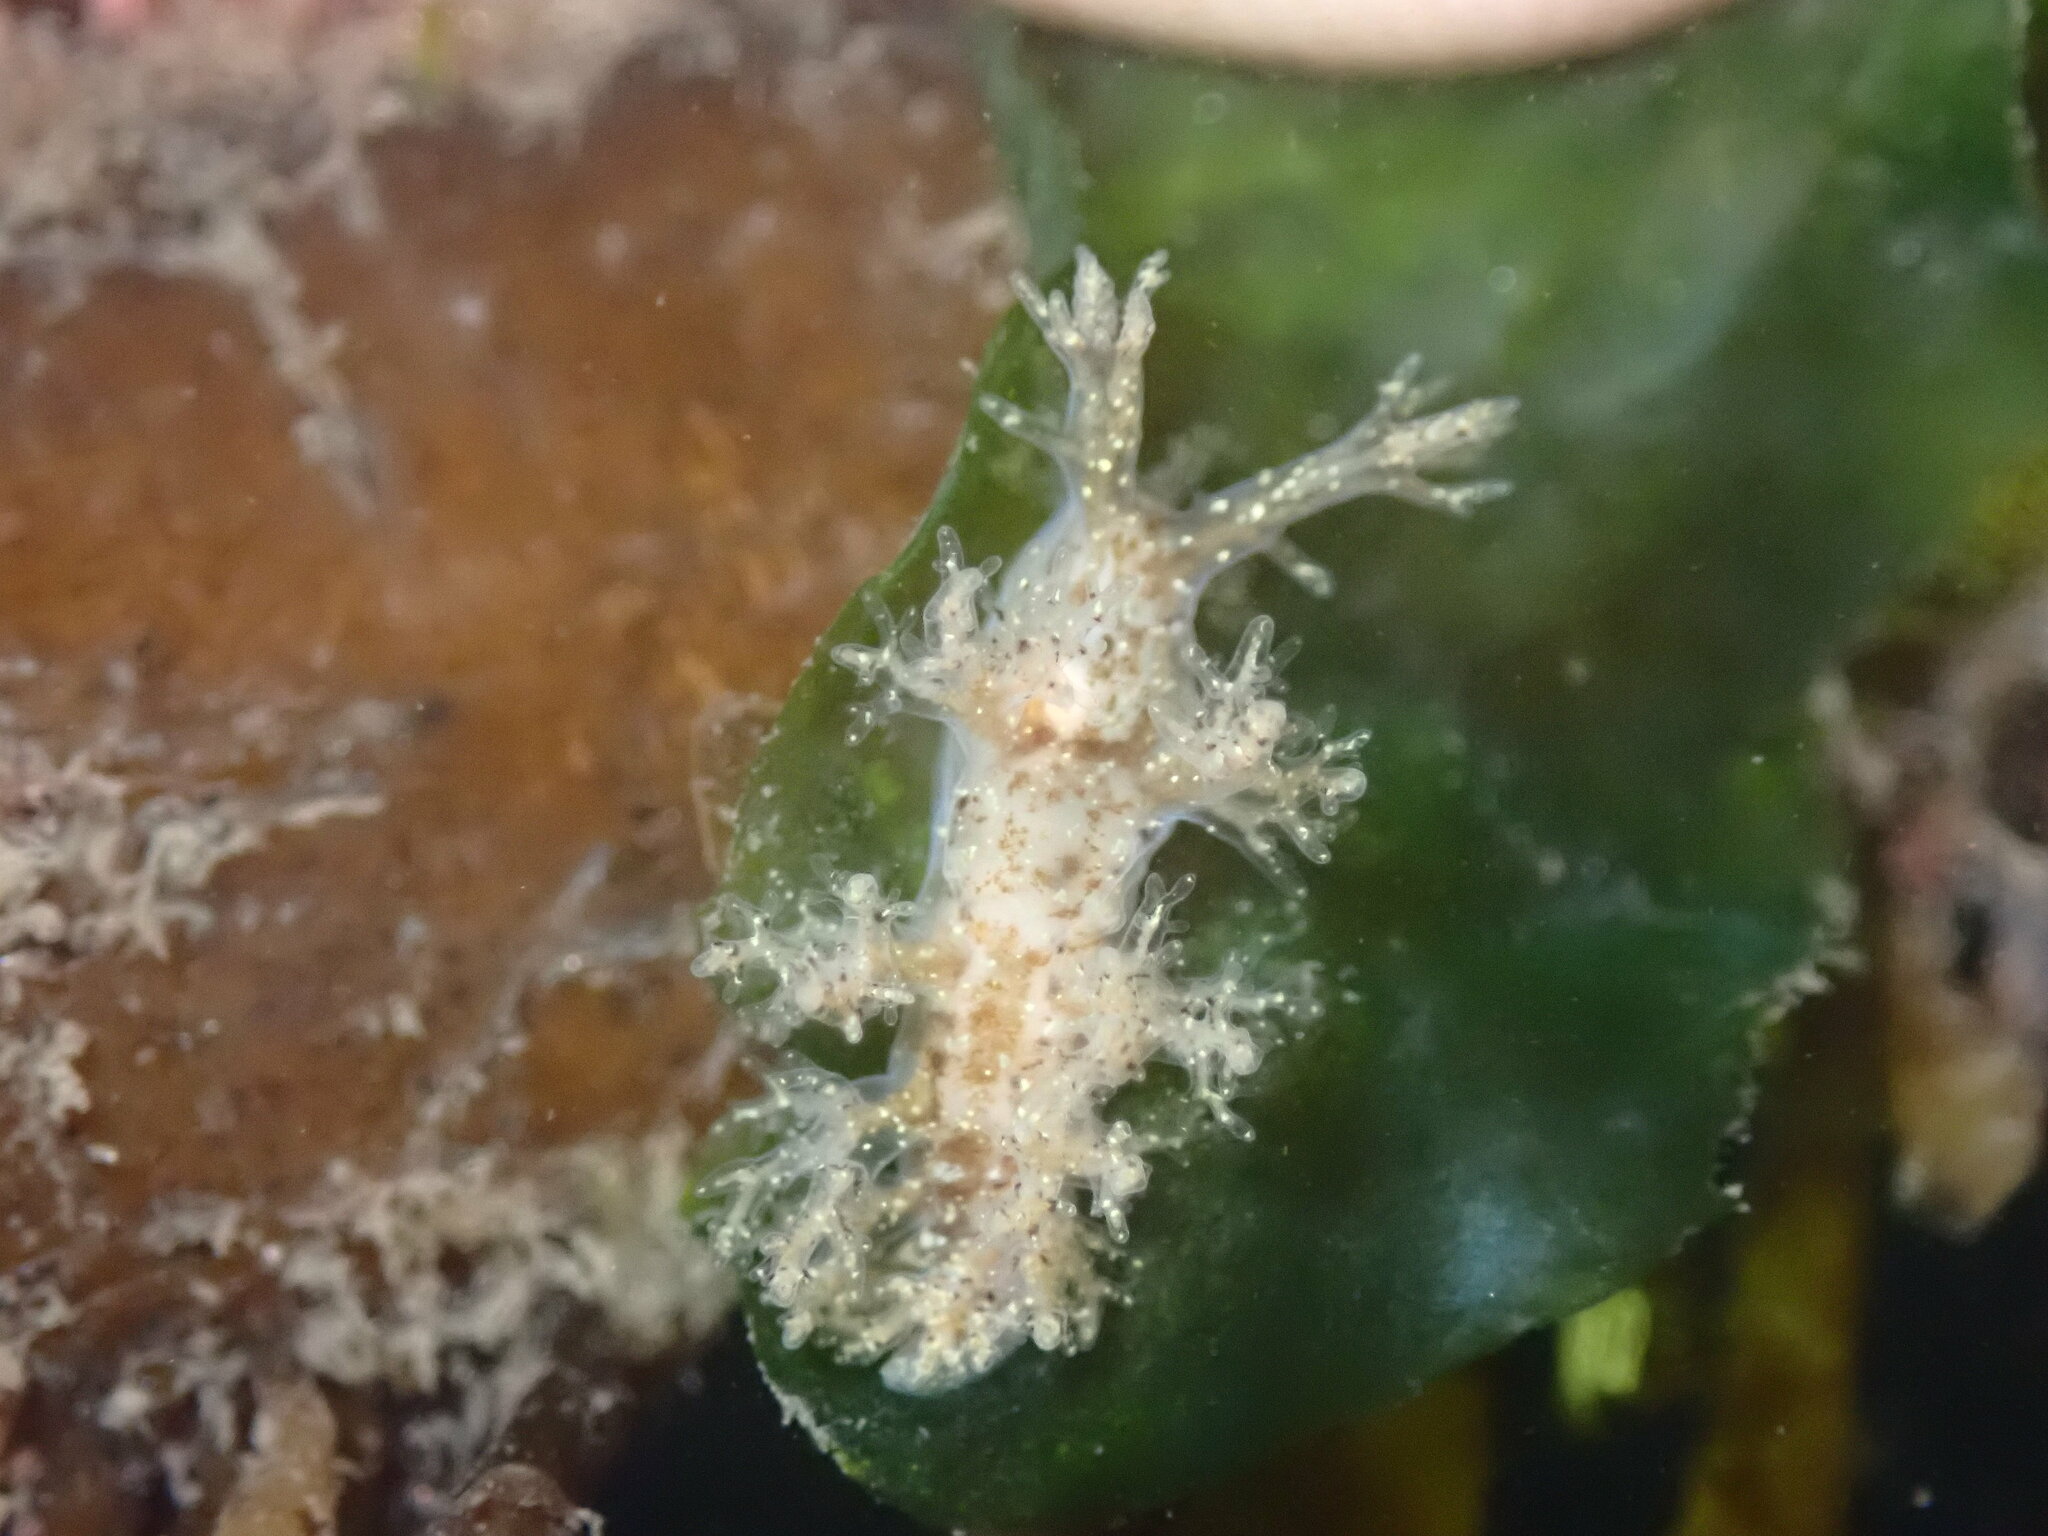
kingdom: Animalia
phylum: Mollusca
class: Gastropoda
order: Nudibranchia
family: Dendronotidae
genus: Dendronotus
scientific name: Dendronotus venustus
